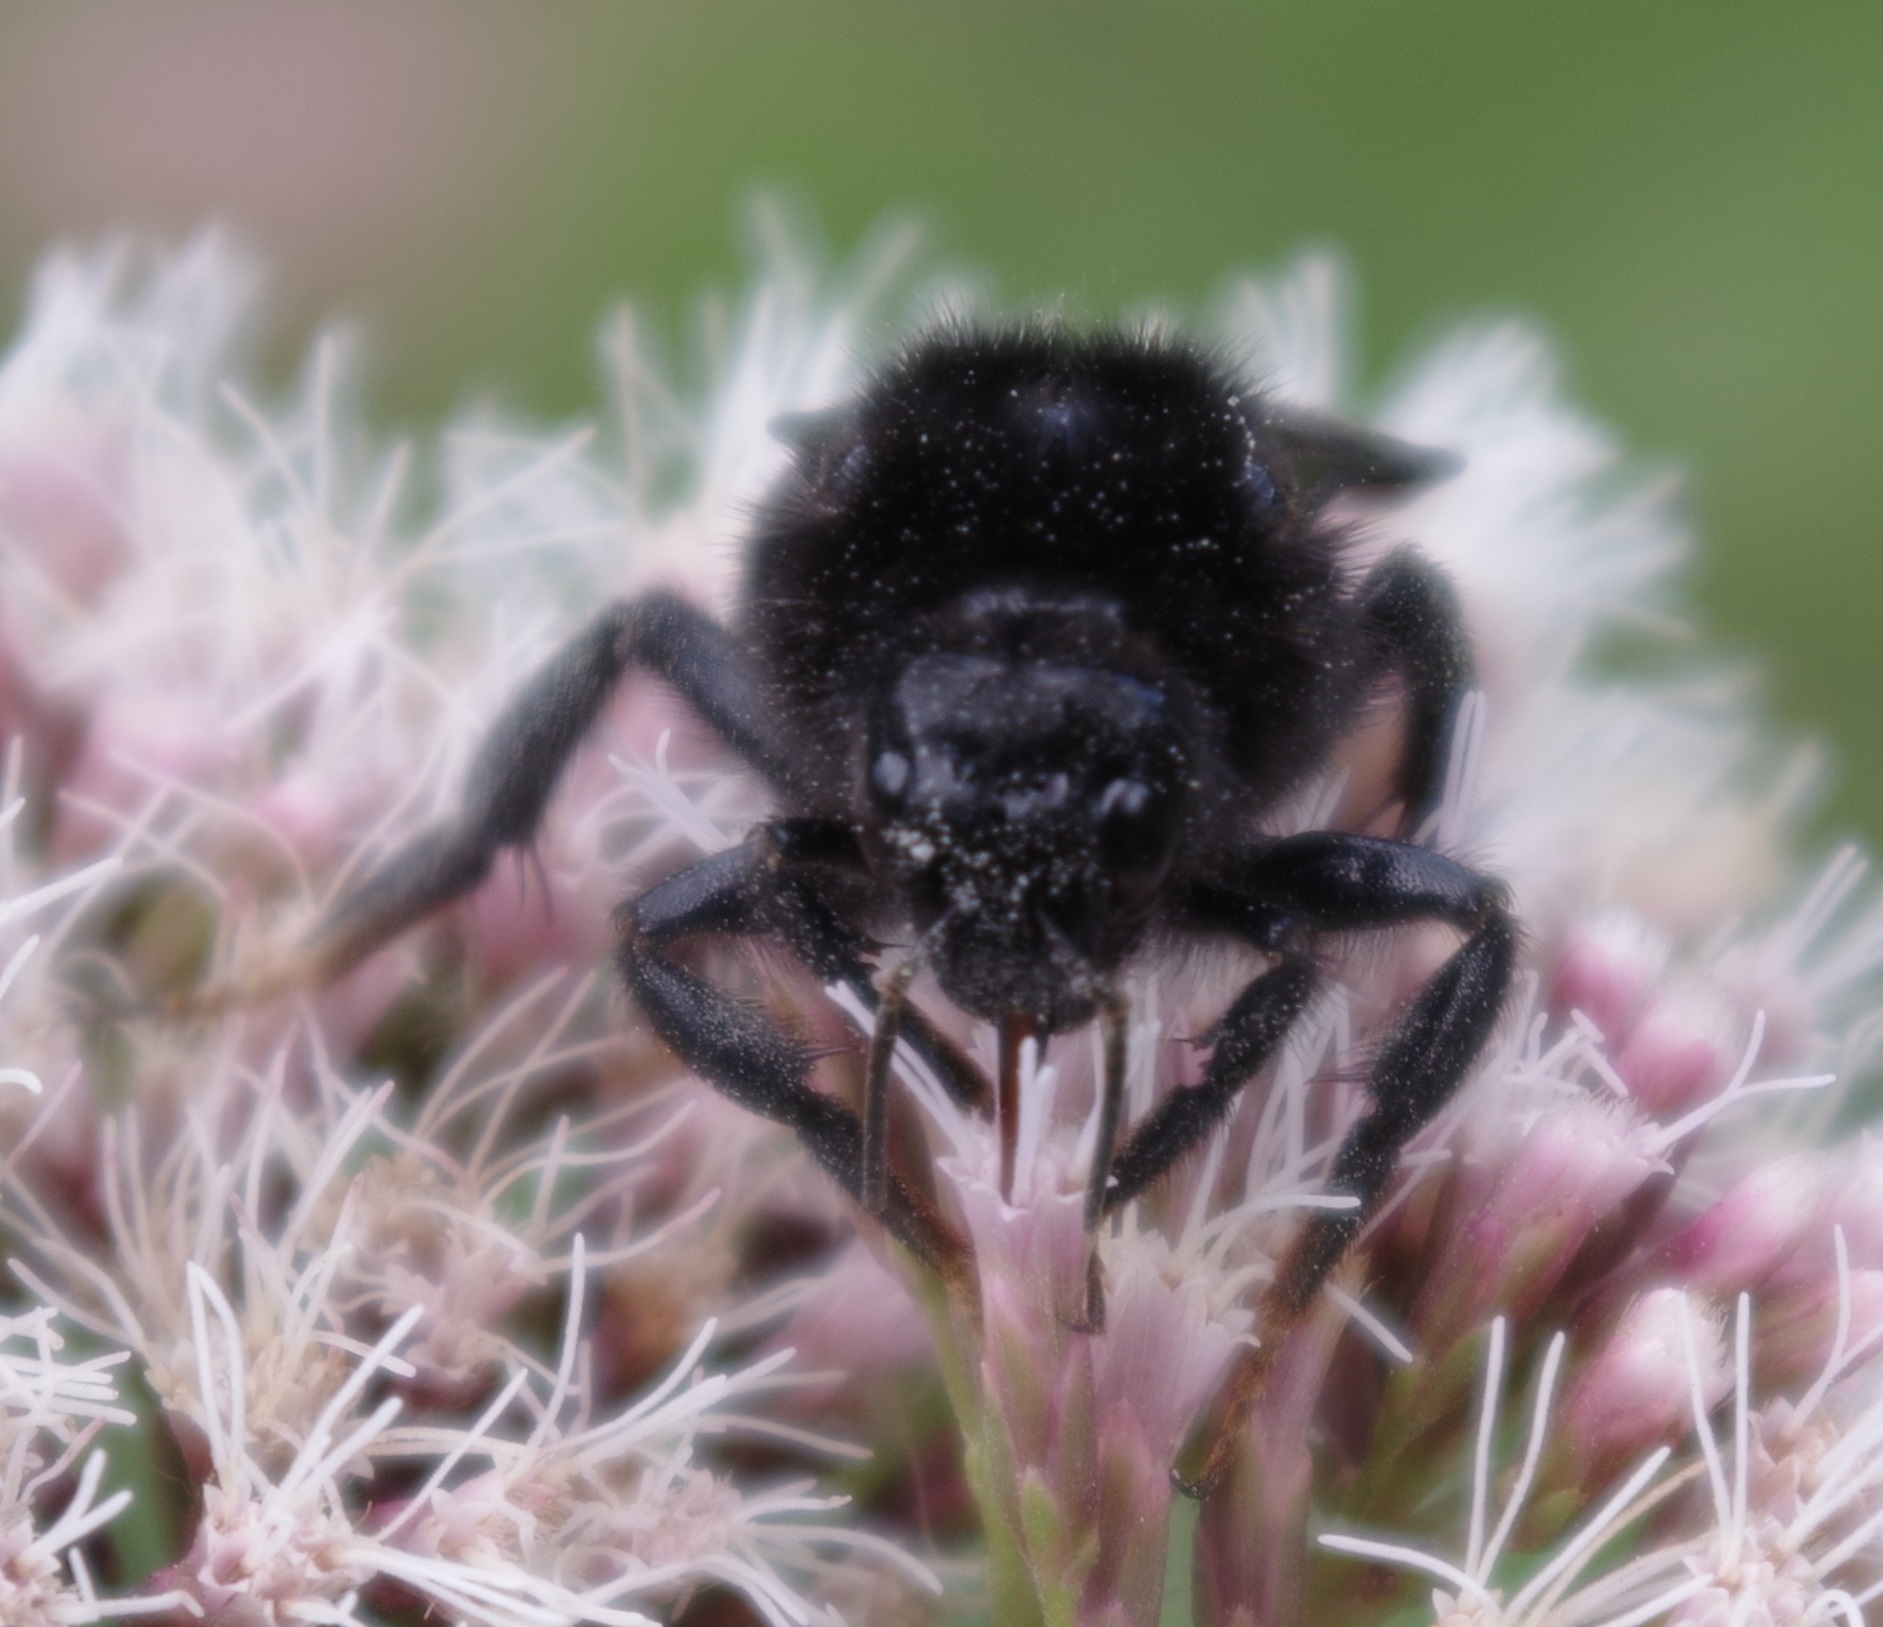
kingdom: Animalia
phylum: Arthropoda
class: Insecta
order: Hymenoptera
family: Apidae
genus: Bombus
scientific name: Bombus rupestris
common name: Hill cuckoo-bee
